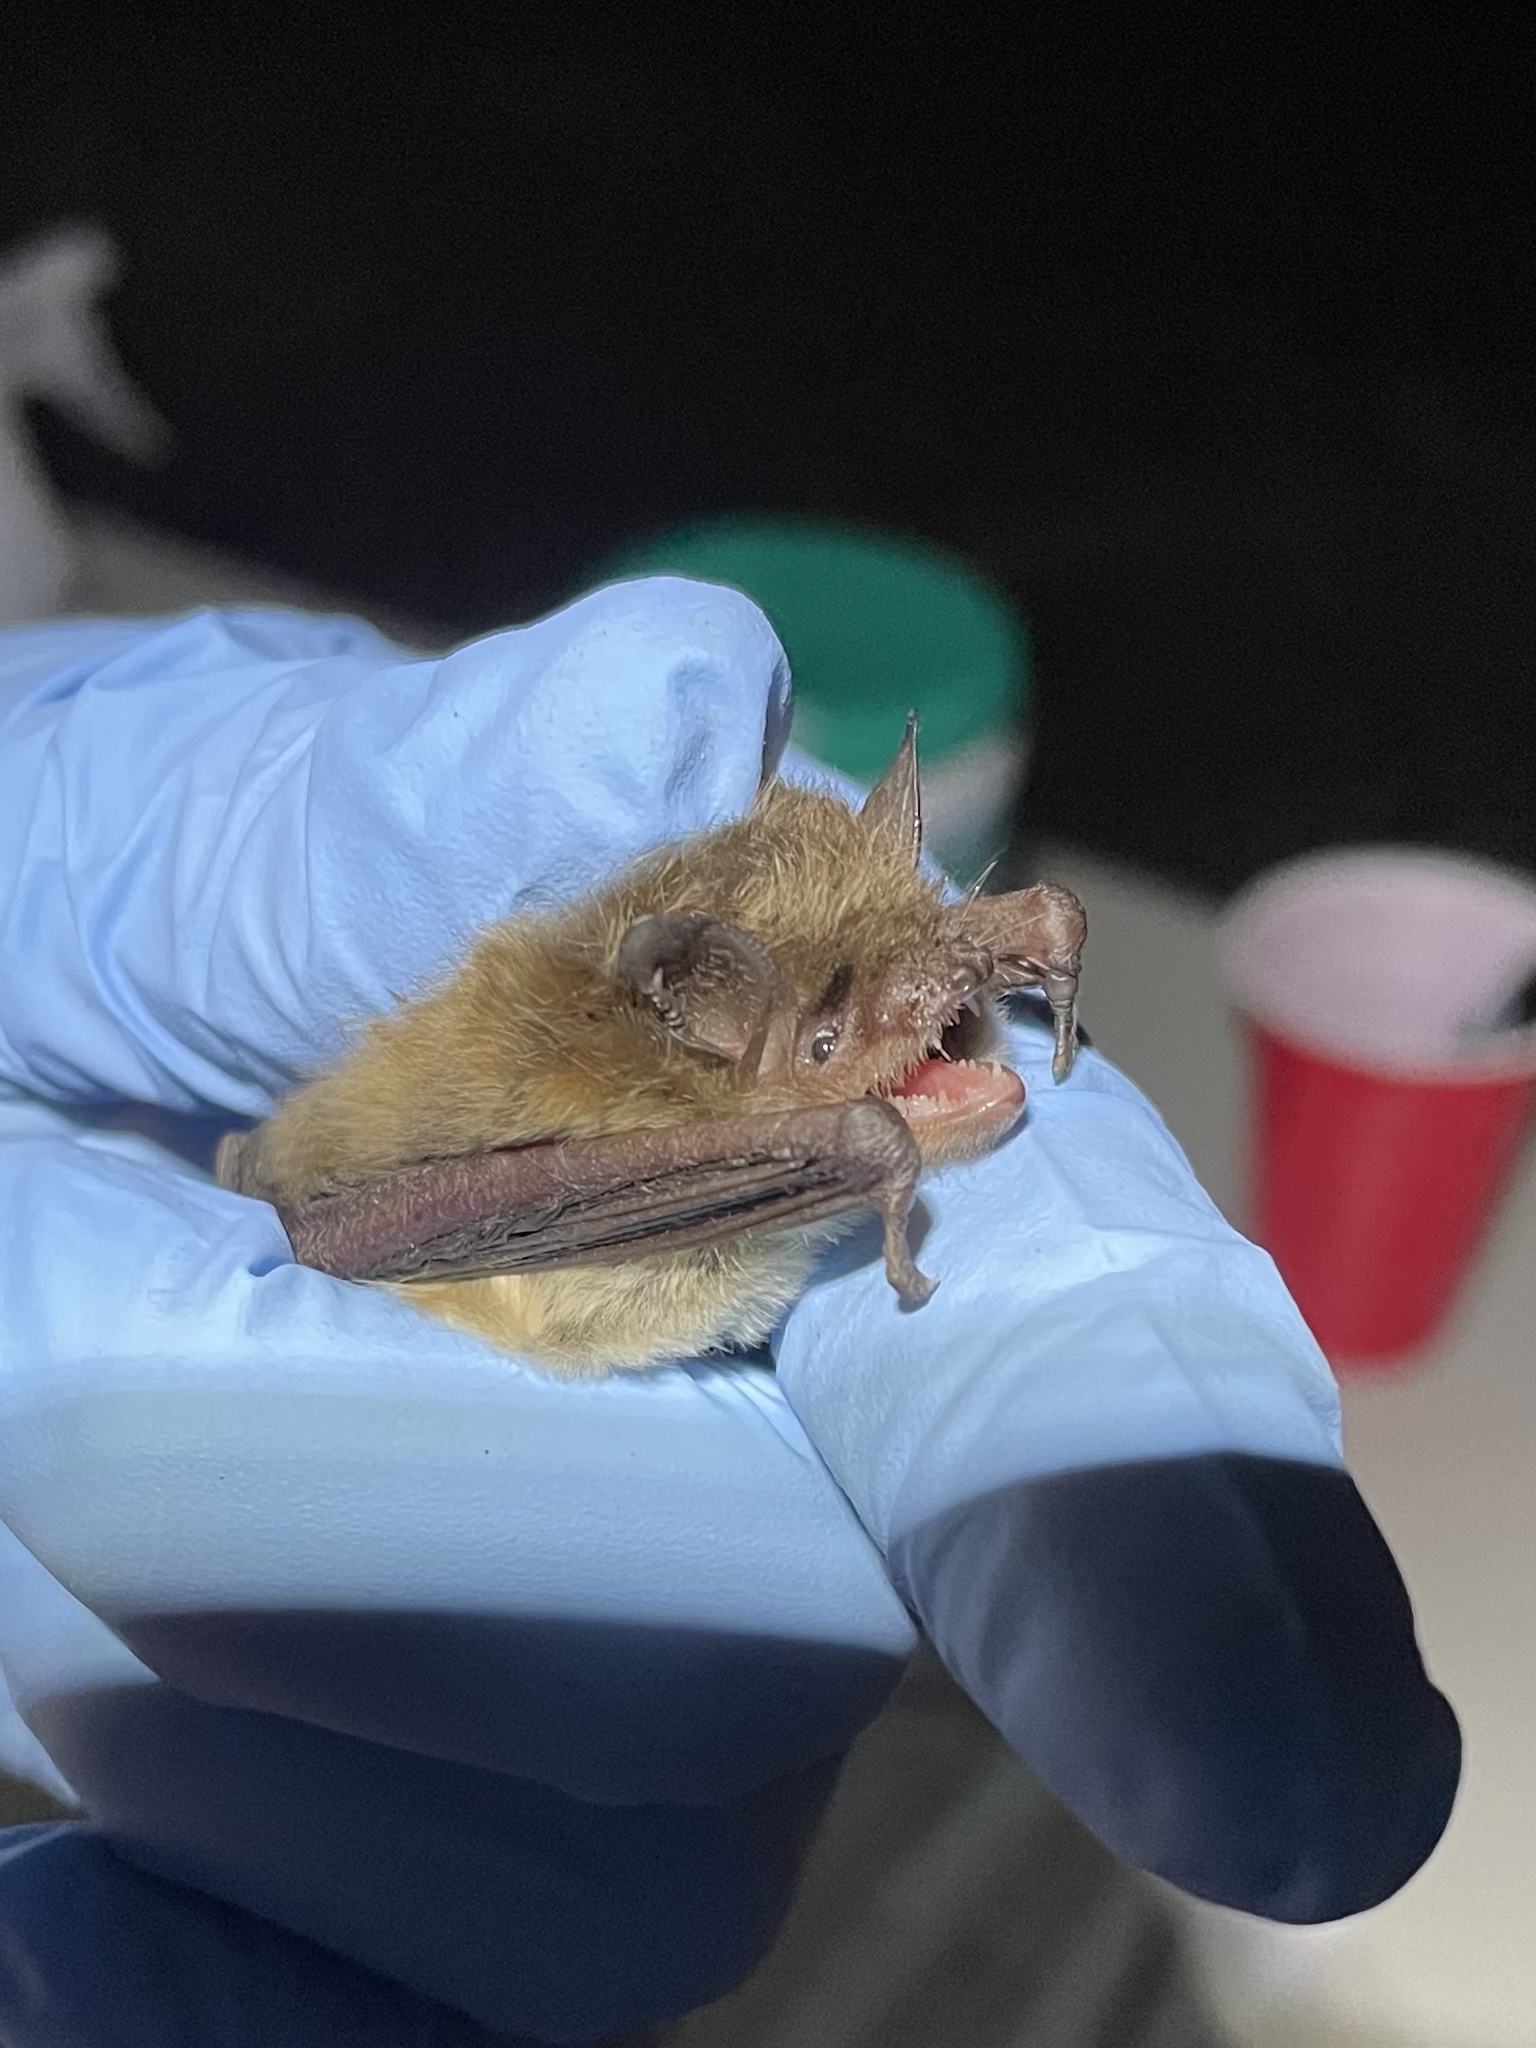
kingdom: Animalia
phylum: Chordata
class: Mammalia
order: Chiroptera
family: Vespertilionidae
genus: Myotis
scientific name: Myotis yumanensis
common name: Yuma myotis
